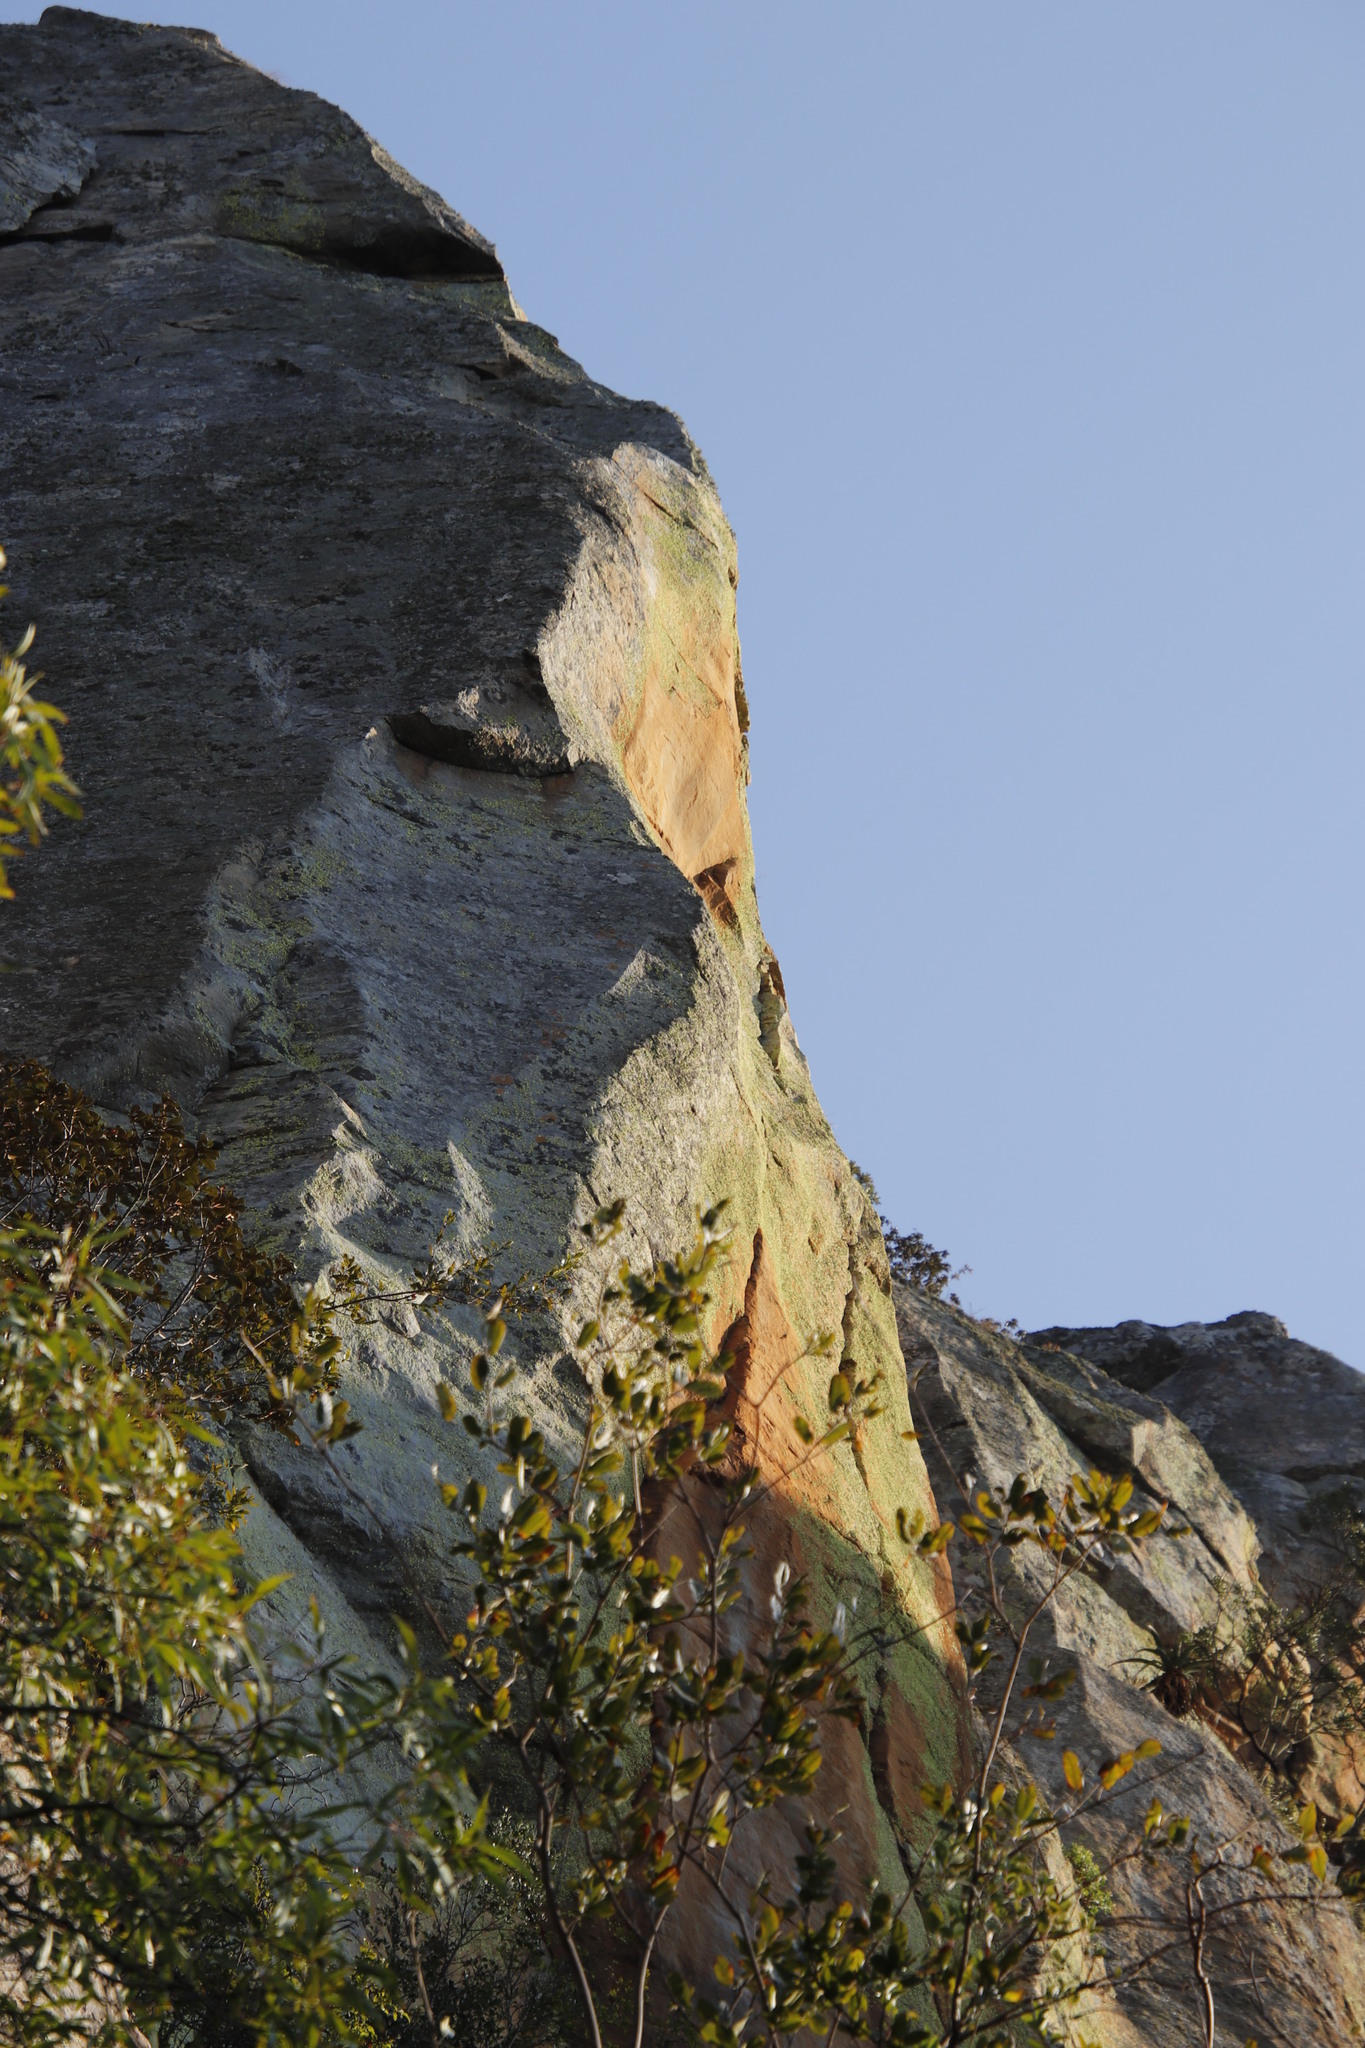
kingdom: Fungi
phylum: Ascomycota
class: Lecanoromycetes
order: Caliciales
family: Caliciaceae
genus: Dermatiscum
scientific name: Dermatiscum thunbergii
